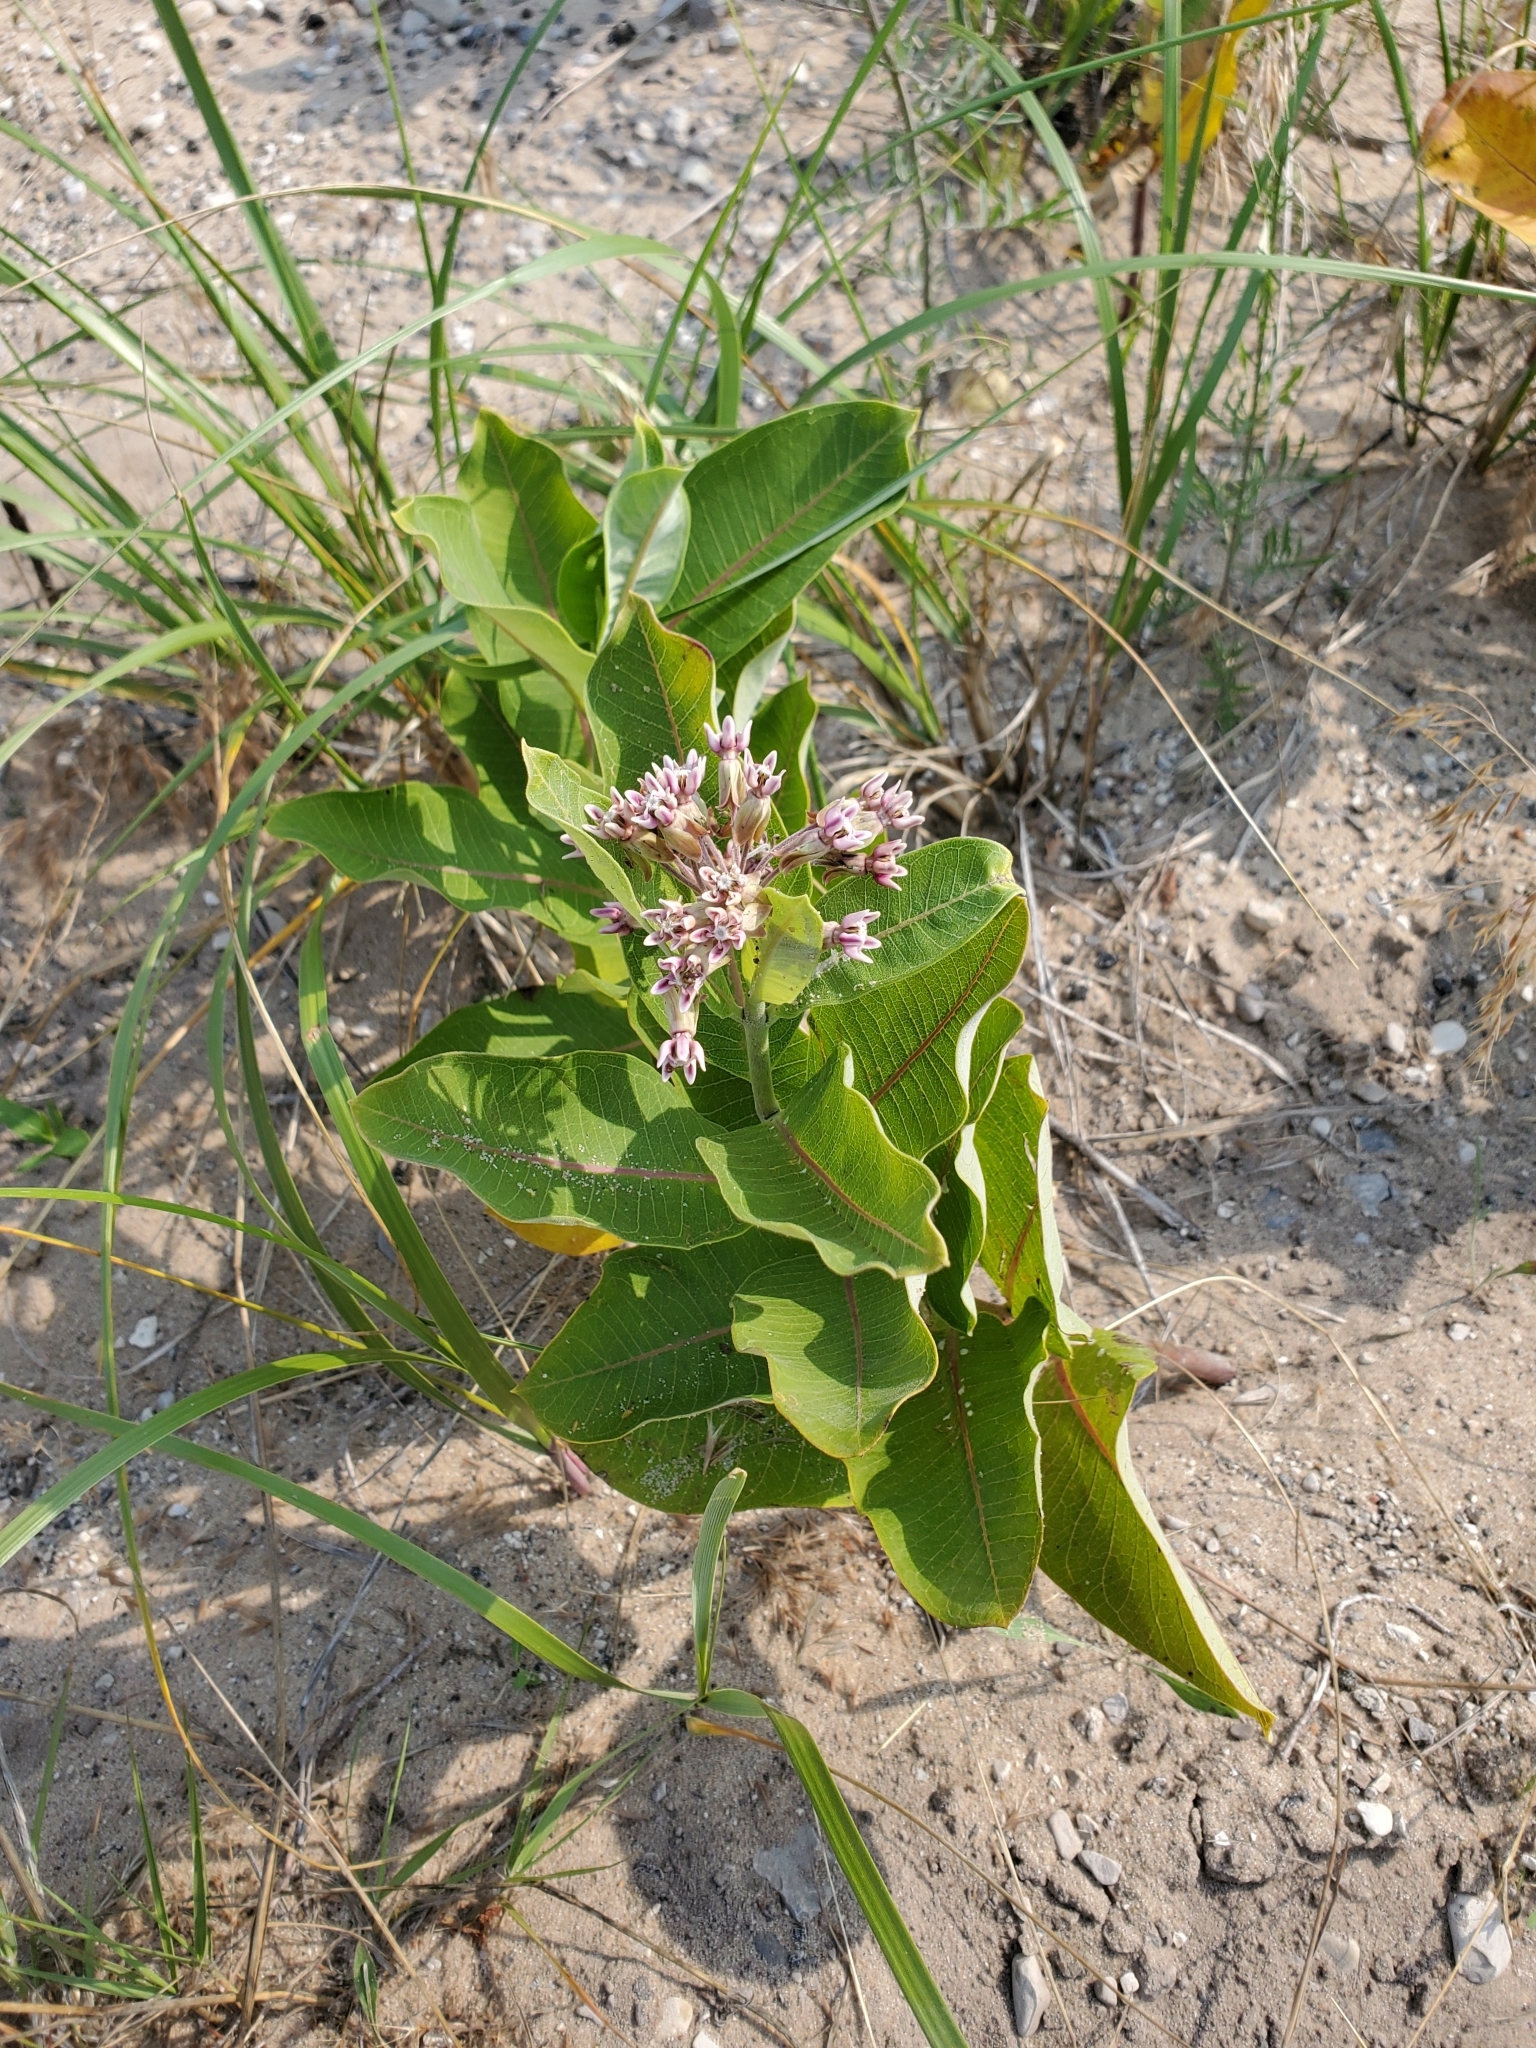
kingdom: Plantae
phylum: Tracheophyta
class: Magnoliopsida
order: Gentianales
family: Apocynaceae
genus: Asclepias
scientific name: Asclepias syriaca
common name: Common milkweed
